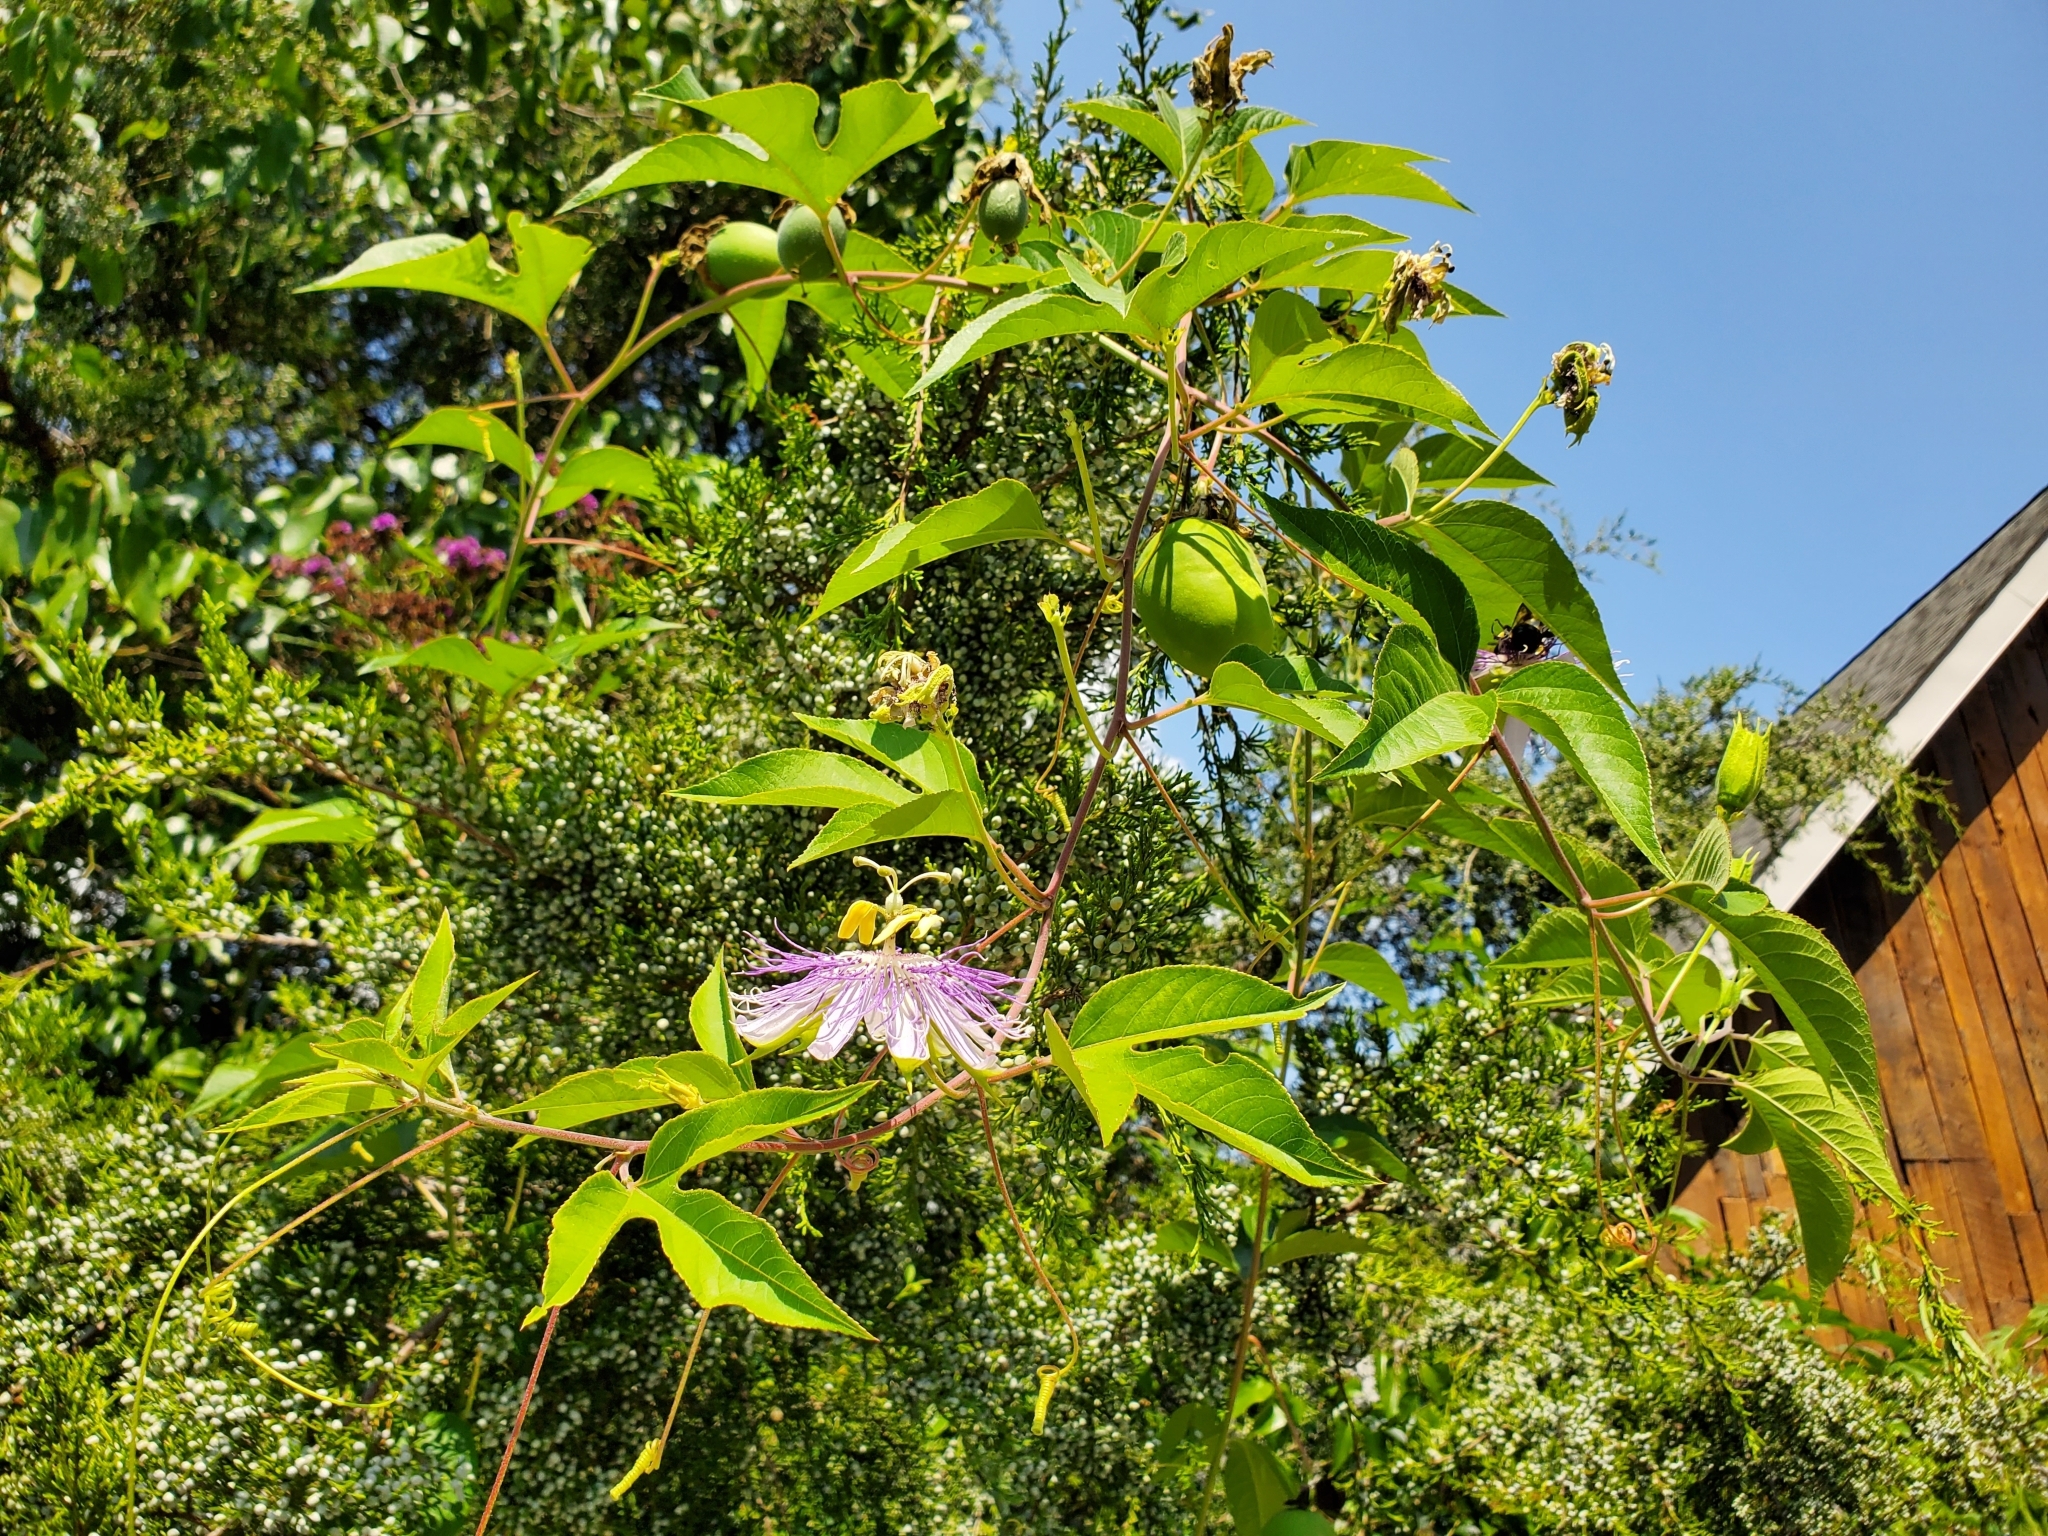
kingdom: Plantae
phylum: Tracheophyta
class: Magnoliopsida
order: Malpighiales
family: Passifloraceae
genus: Passiflora
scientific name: Passiflora incarnata
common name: Apricot-vine
